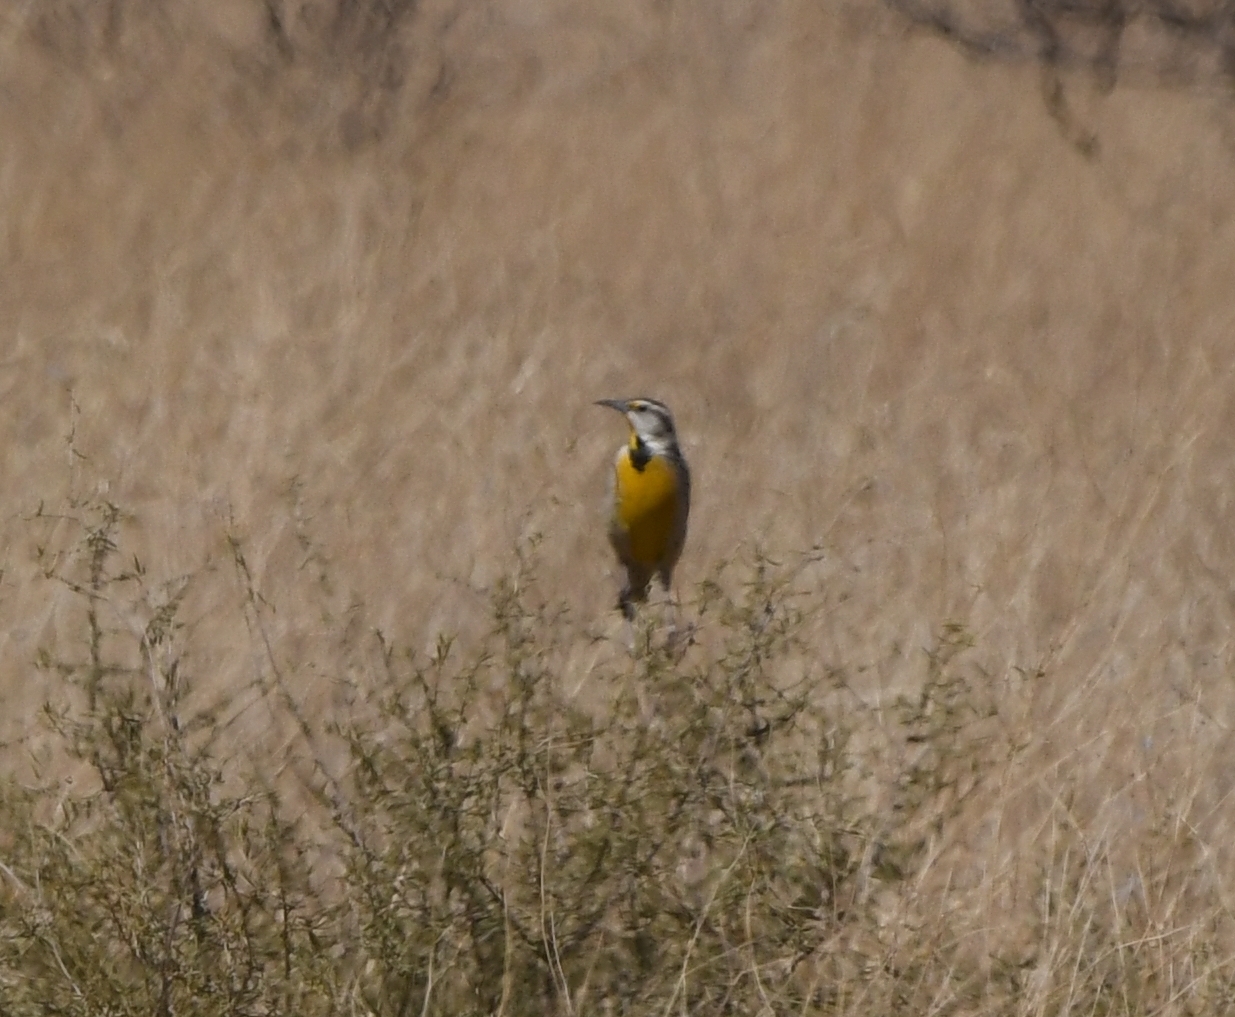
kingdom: Animalia
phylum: Chordata
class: Aves
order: Passeriformes
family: Icteridae
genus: Sturnella
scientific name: Sturnella lilianae
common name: Lilian's meadowlark
